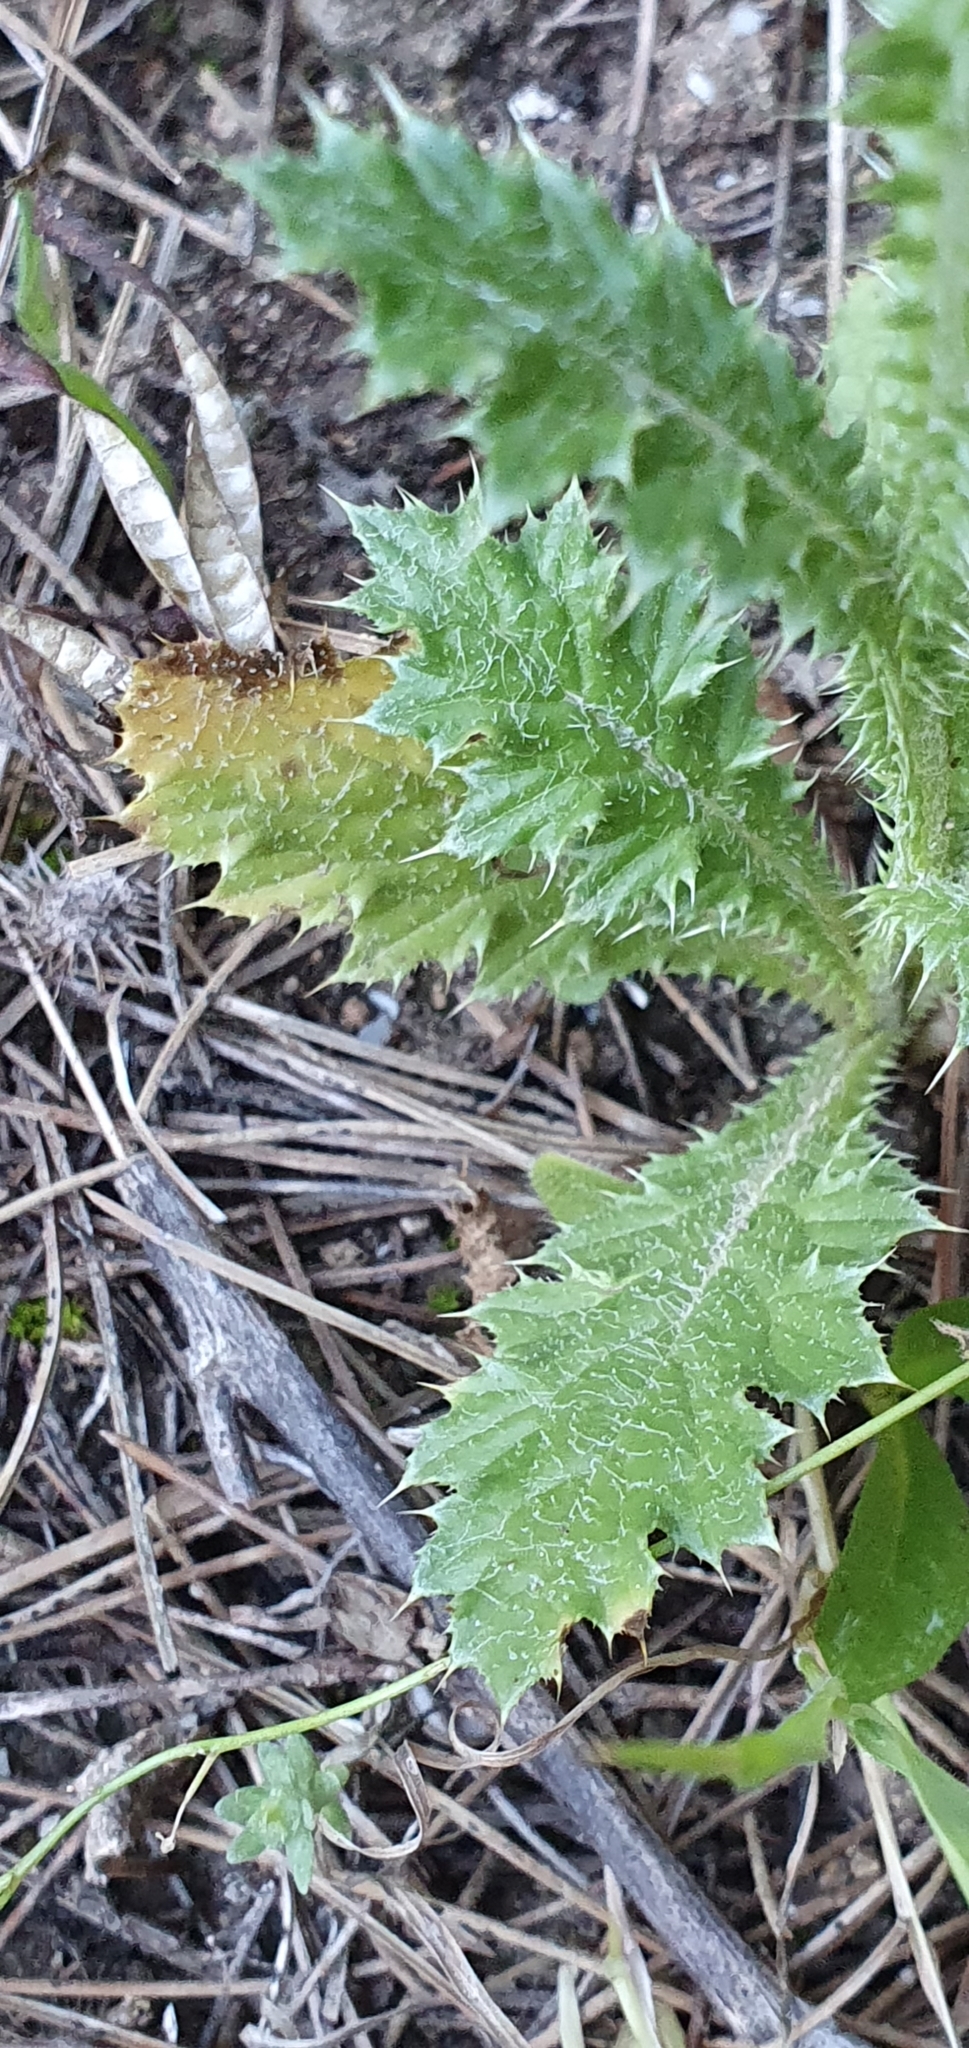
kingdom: Plantae
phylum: Tracheophyta
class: Magnoliopsida
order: Asterales
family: Asteraceae
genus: Carduus
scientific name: Carduus spachianus
